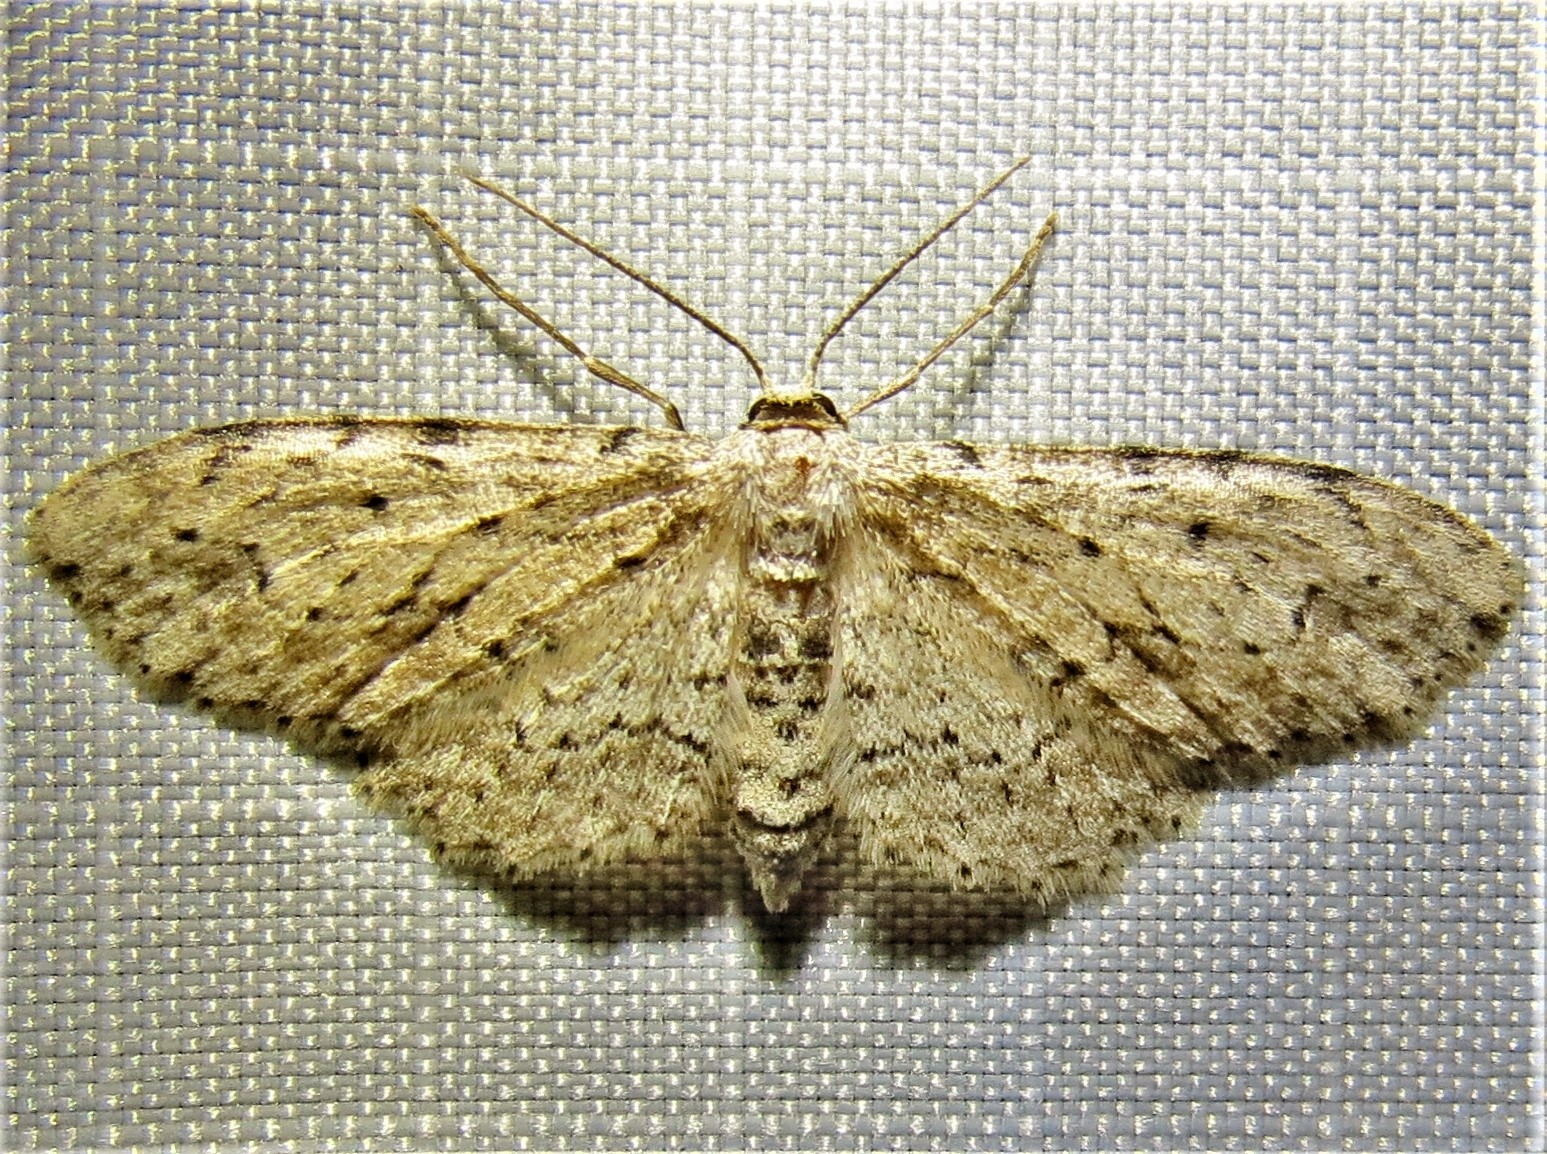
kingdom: Animalia
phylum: Arthropoda
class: Insecta
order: Lepidoptera
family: Geometridae
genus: Pimaphera
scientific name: Pimaphera sparsaria
